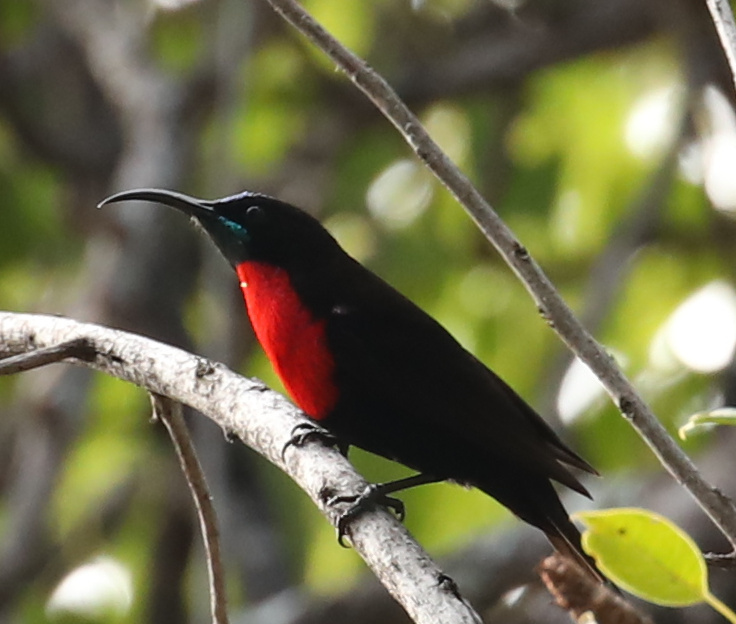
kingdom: Animalia
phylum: Chordata
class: Aves
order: Passeriformes
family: Nectariniidae
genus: Chalcomitra
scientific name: Chalcomitra senegalensis
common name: Scarlet-chested sunbird
